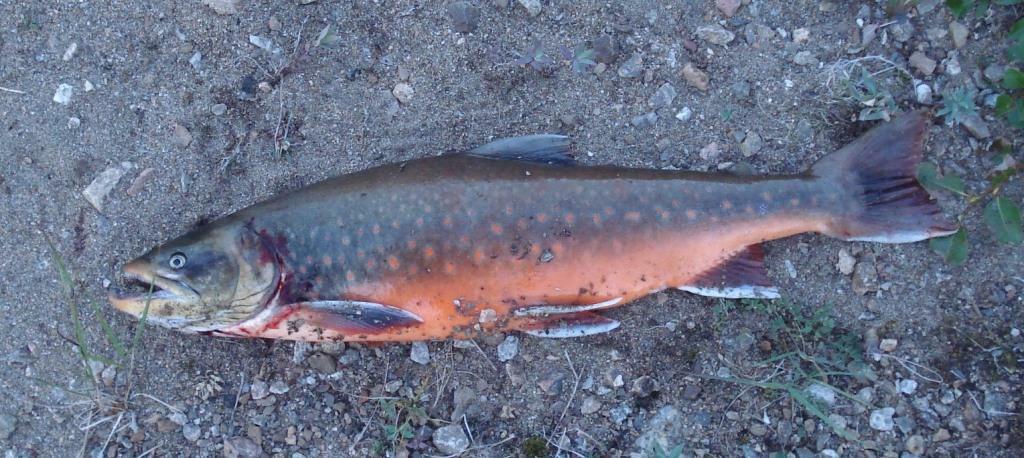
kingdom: Animalia
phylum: Chordata
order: Salmoniformes
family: Salmonidae
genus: Salvelinus
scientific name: Salvelinus alpinus
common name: Charr
